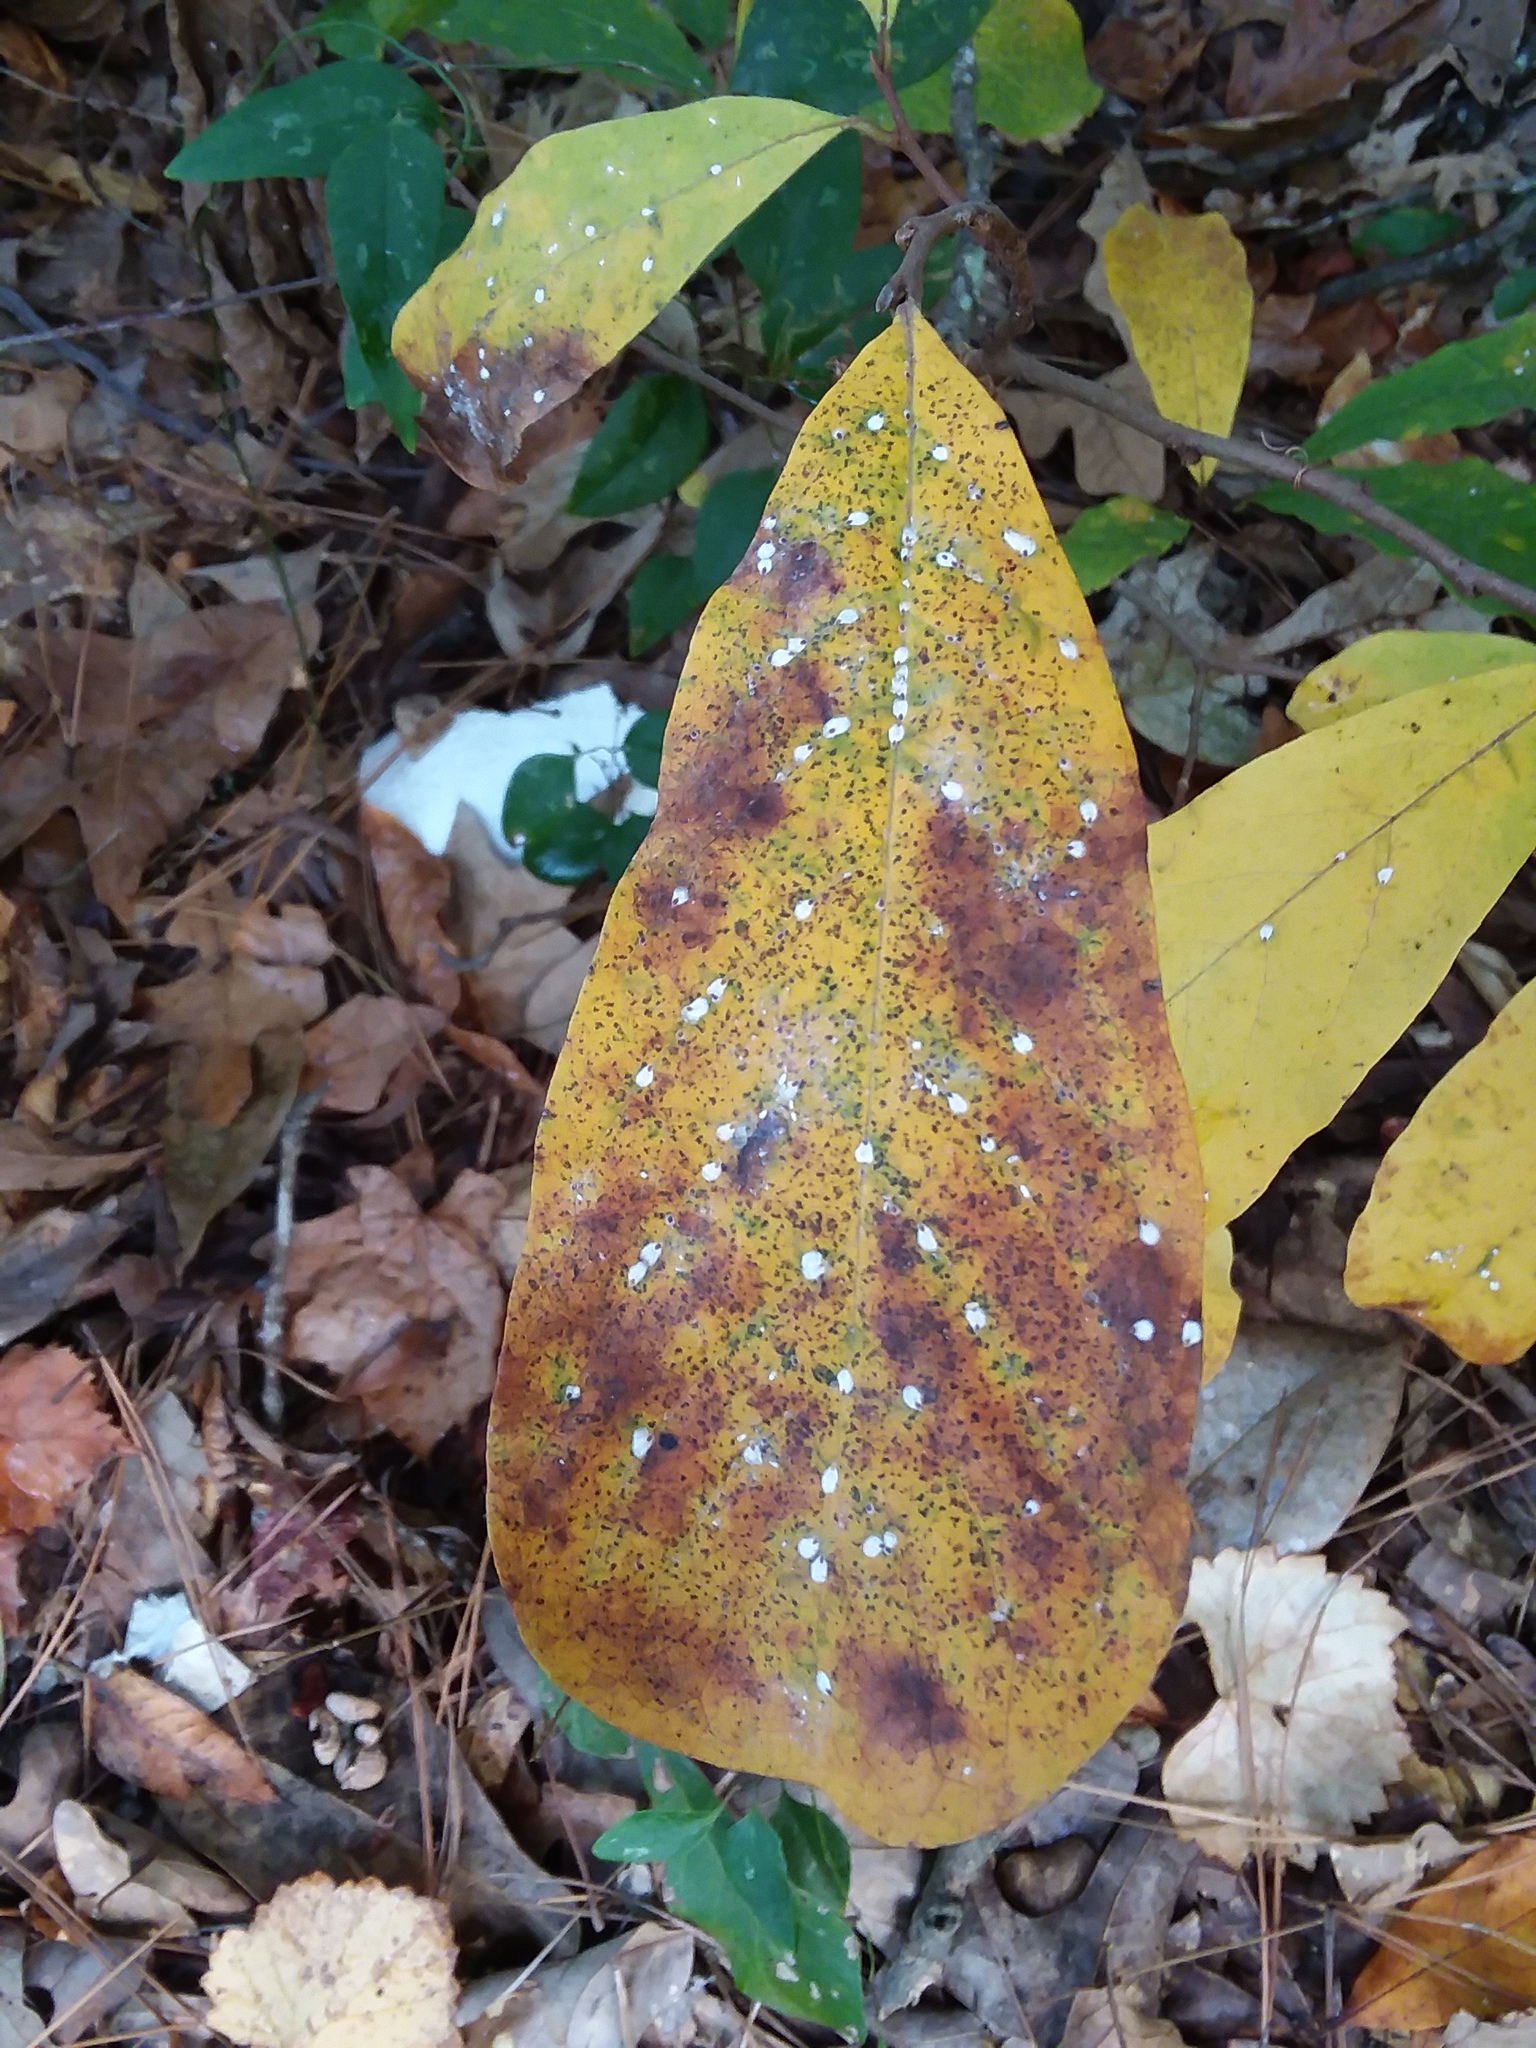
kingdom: Plantae
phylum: Tracheophyta
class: Magnoliopsida
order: Magnoliales
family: Annonaceae
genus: Asimina
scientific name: Asimina parviflora
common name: Dwarf pawpaw
